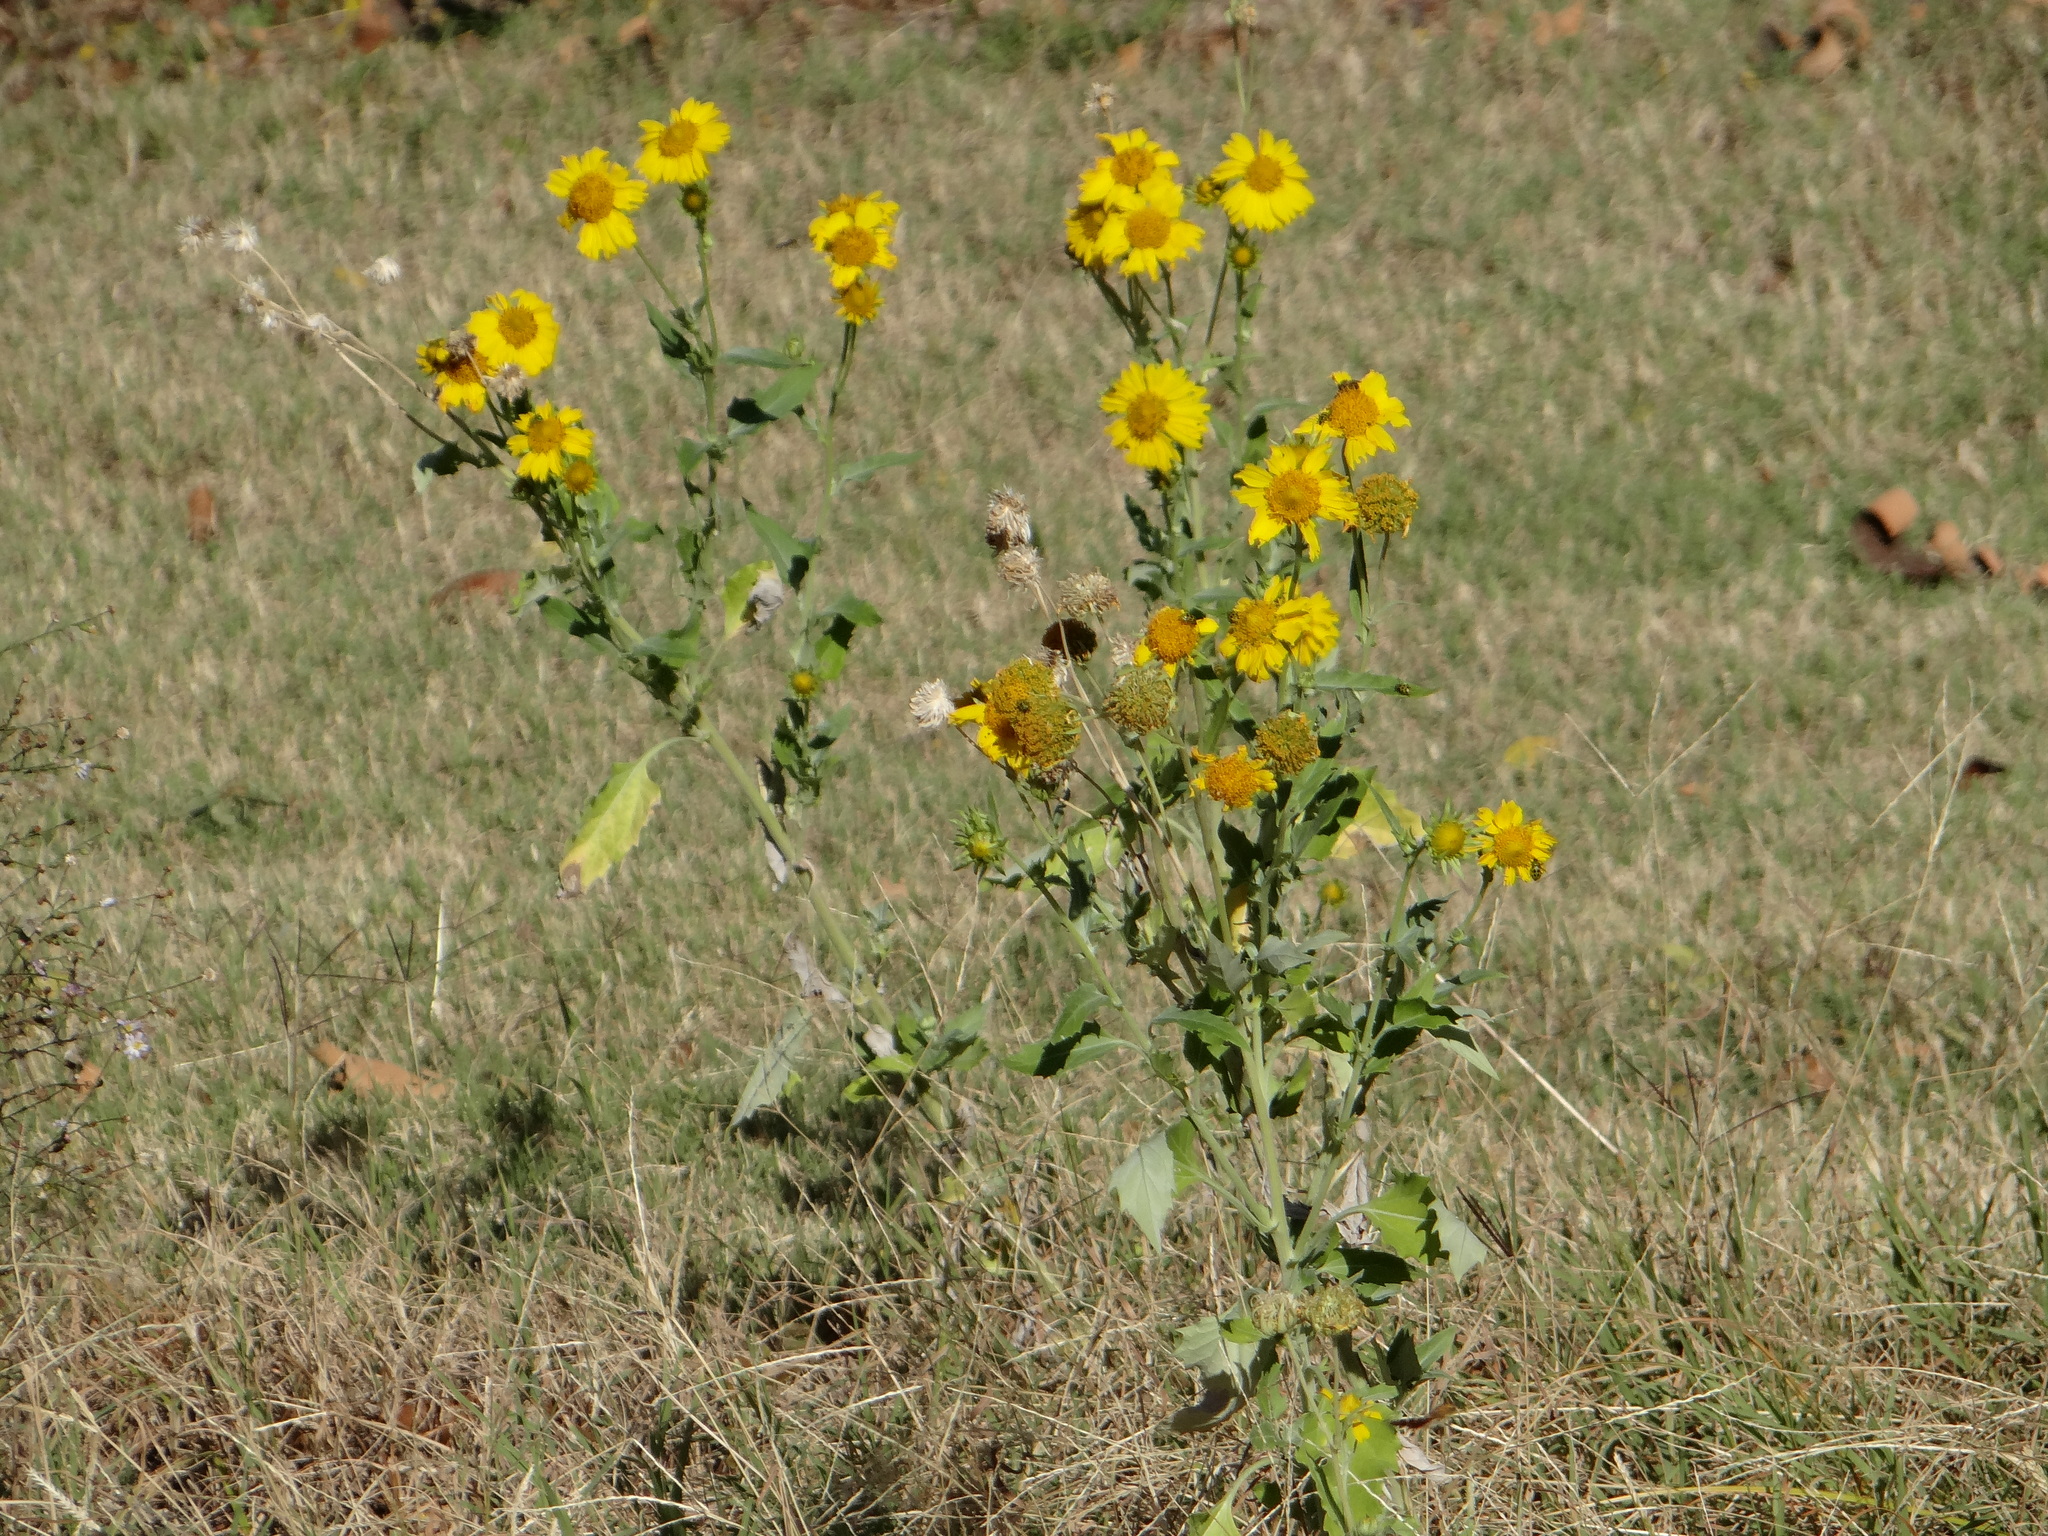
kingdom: Plantae
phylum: Tracheophyta
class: Magnoliopsida
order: Asterales
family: Asteraceae
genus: Verbesina
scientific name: Verbesina encelioides
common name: Golden crownbeard
